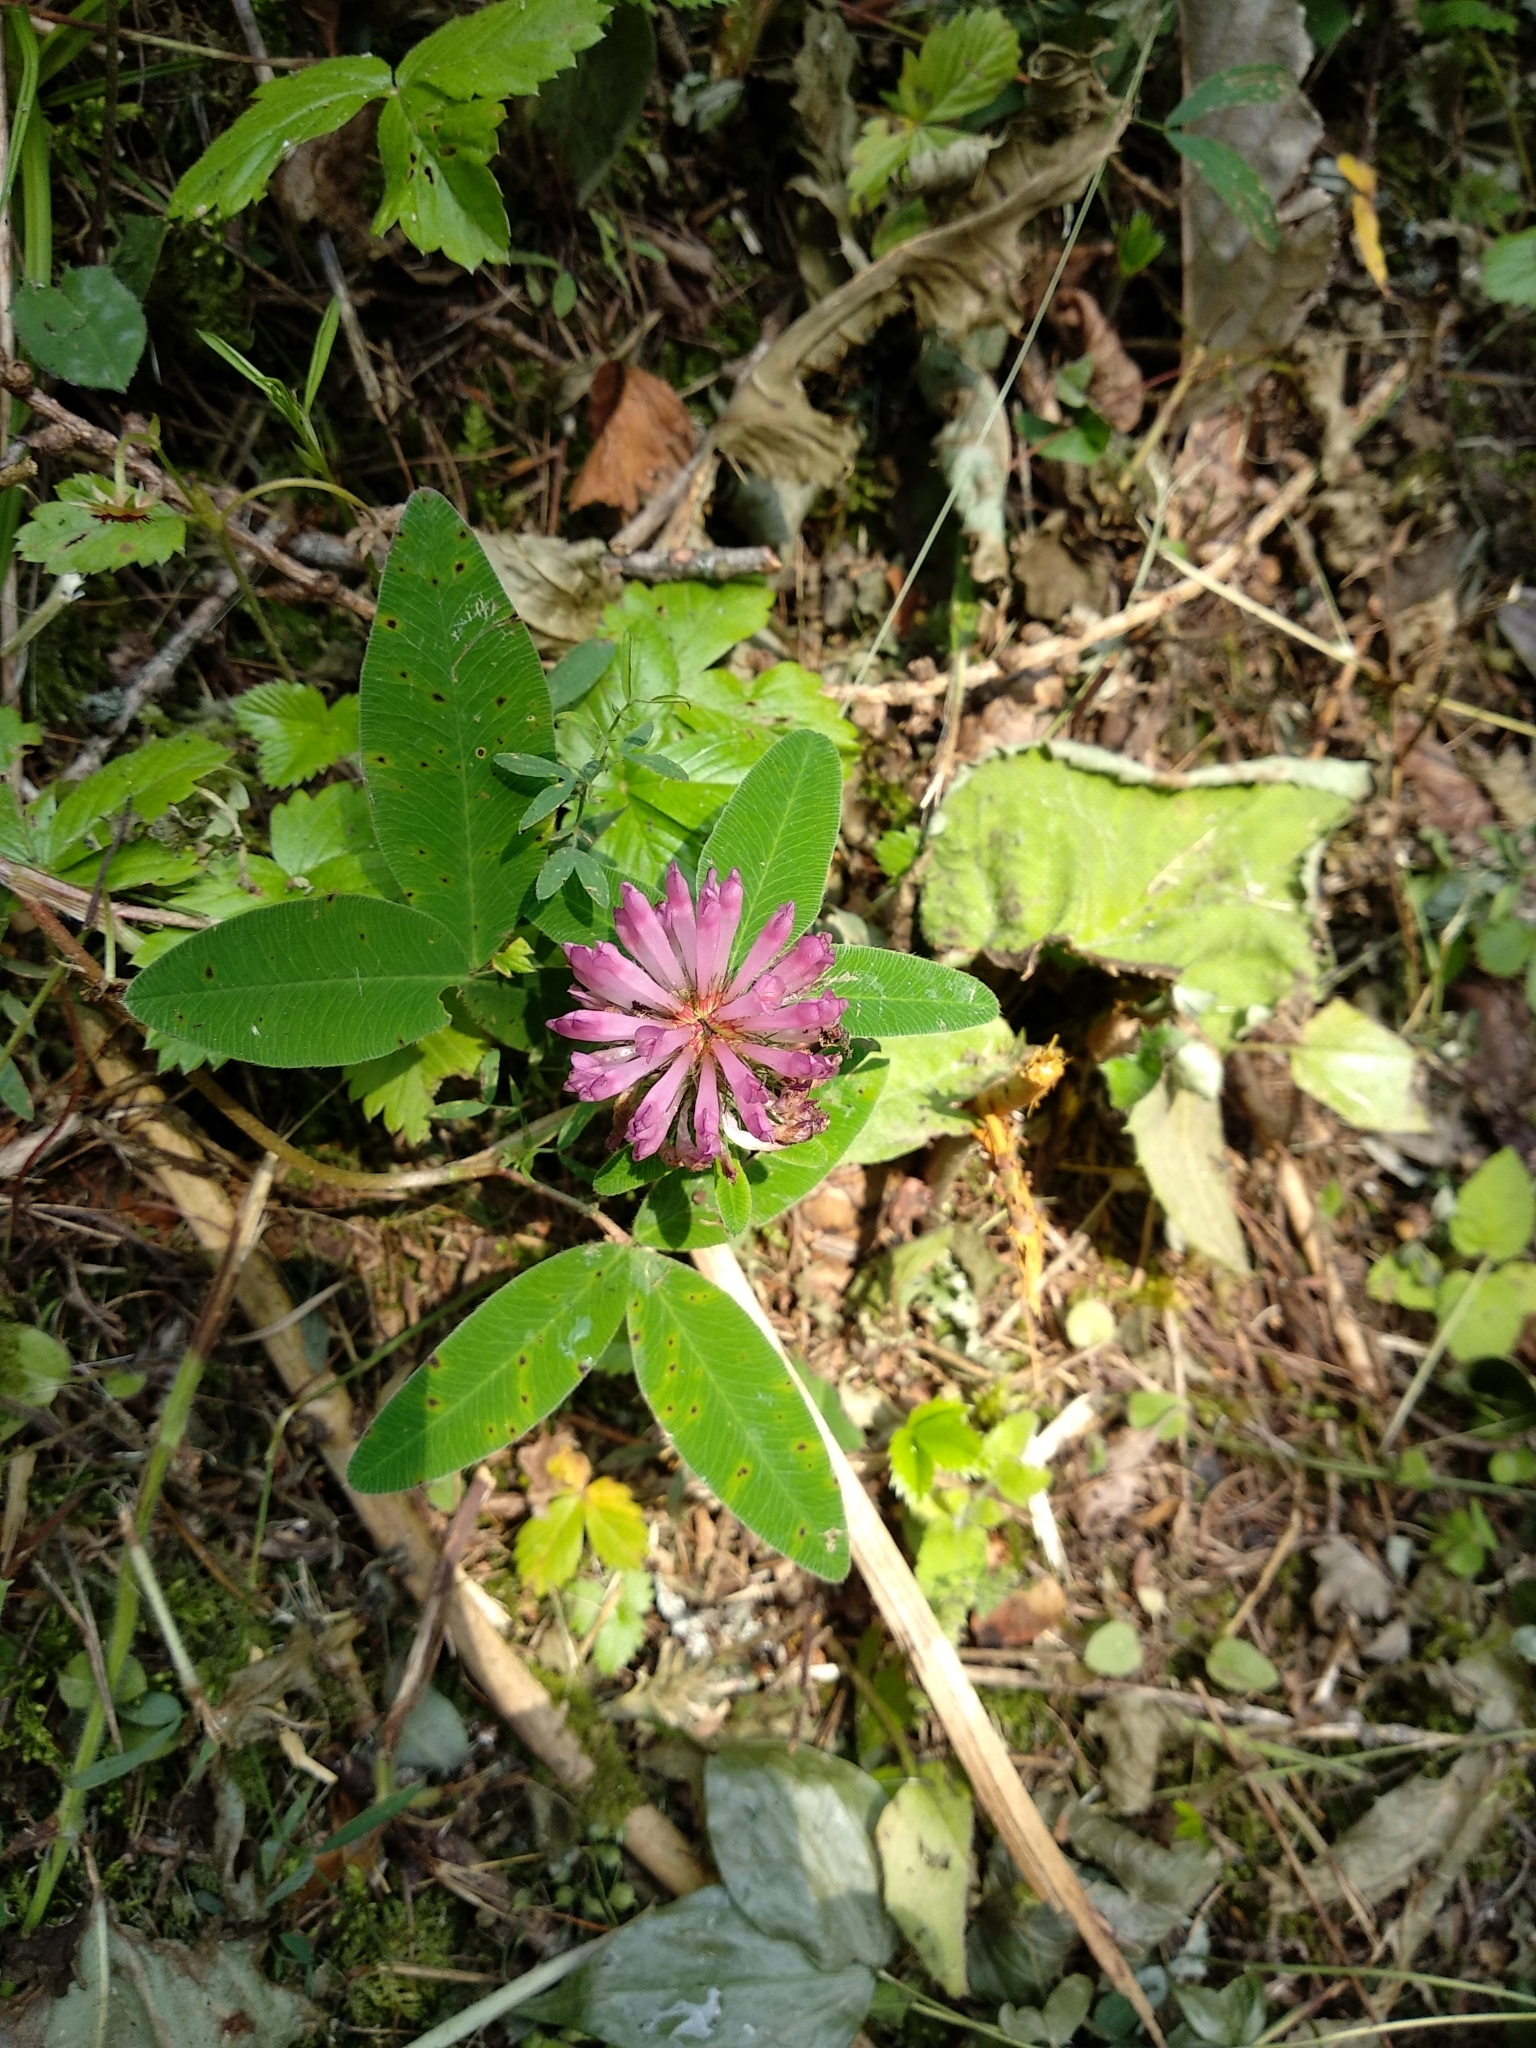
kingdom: Plantae
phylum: Tracheophyta
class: Magnoliopsida
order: Fabales
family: Fabaceae
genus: Trifolium
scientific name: Trifolium medium
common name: Zigzag clover
